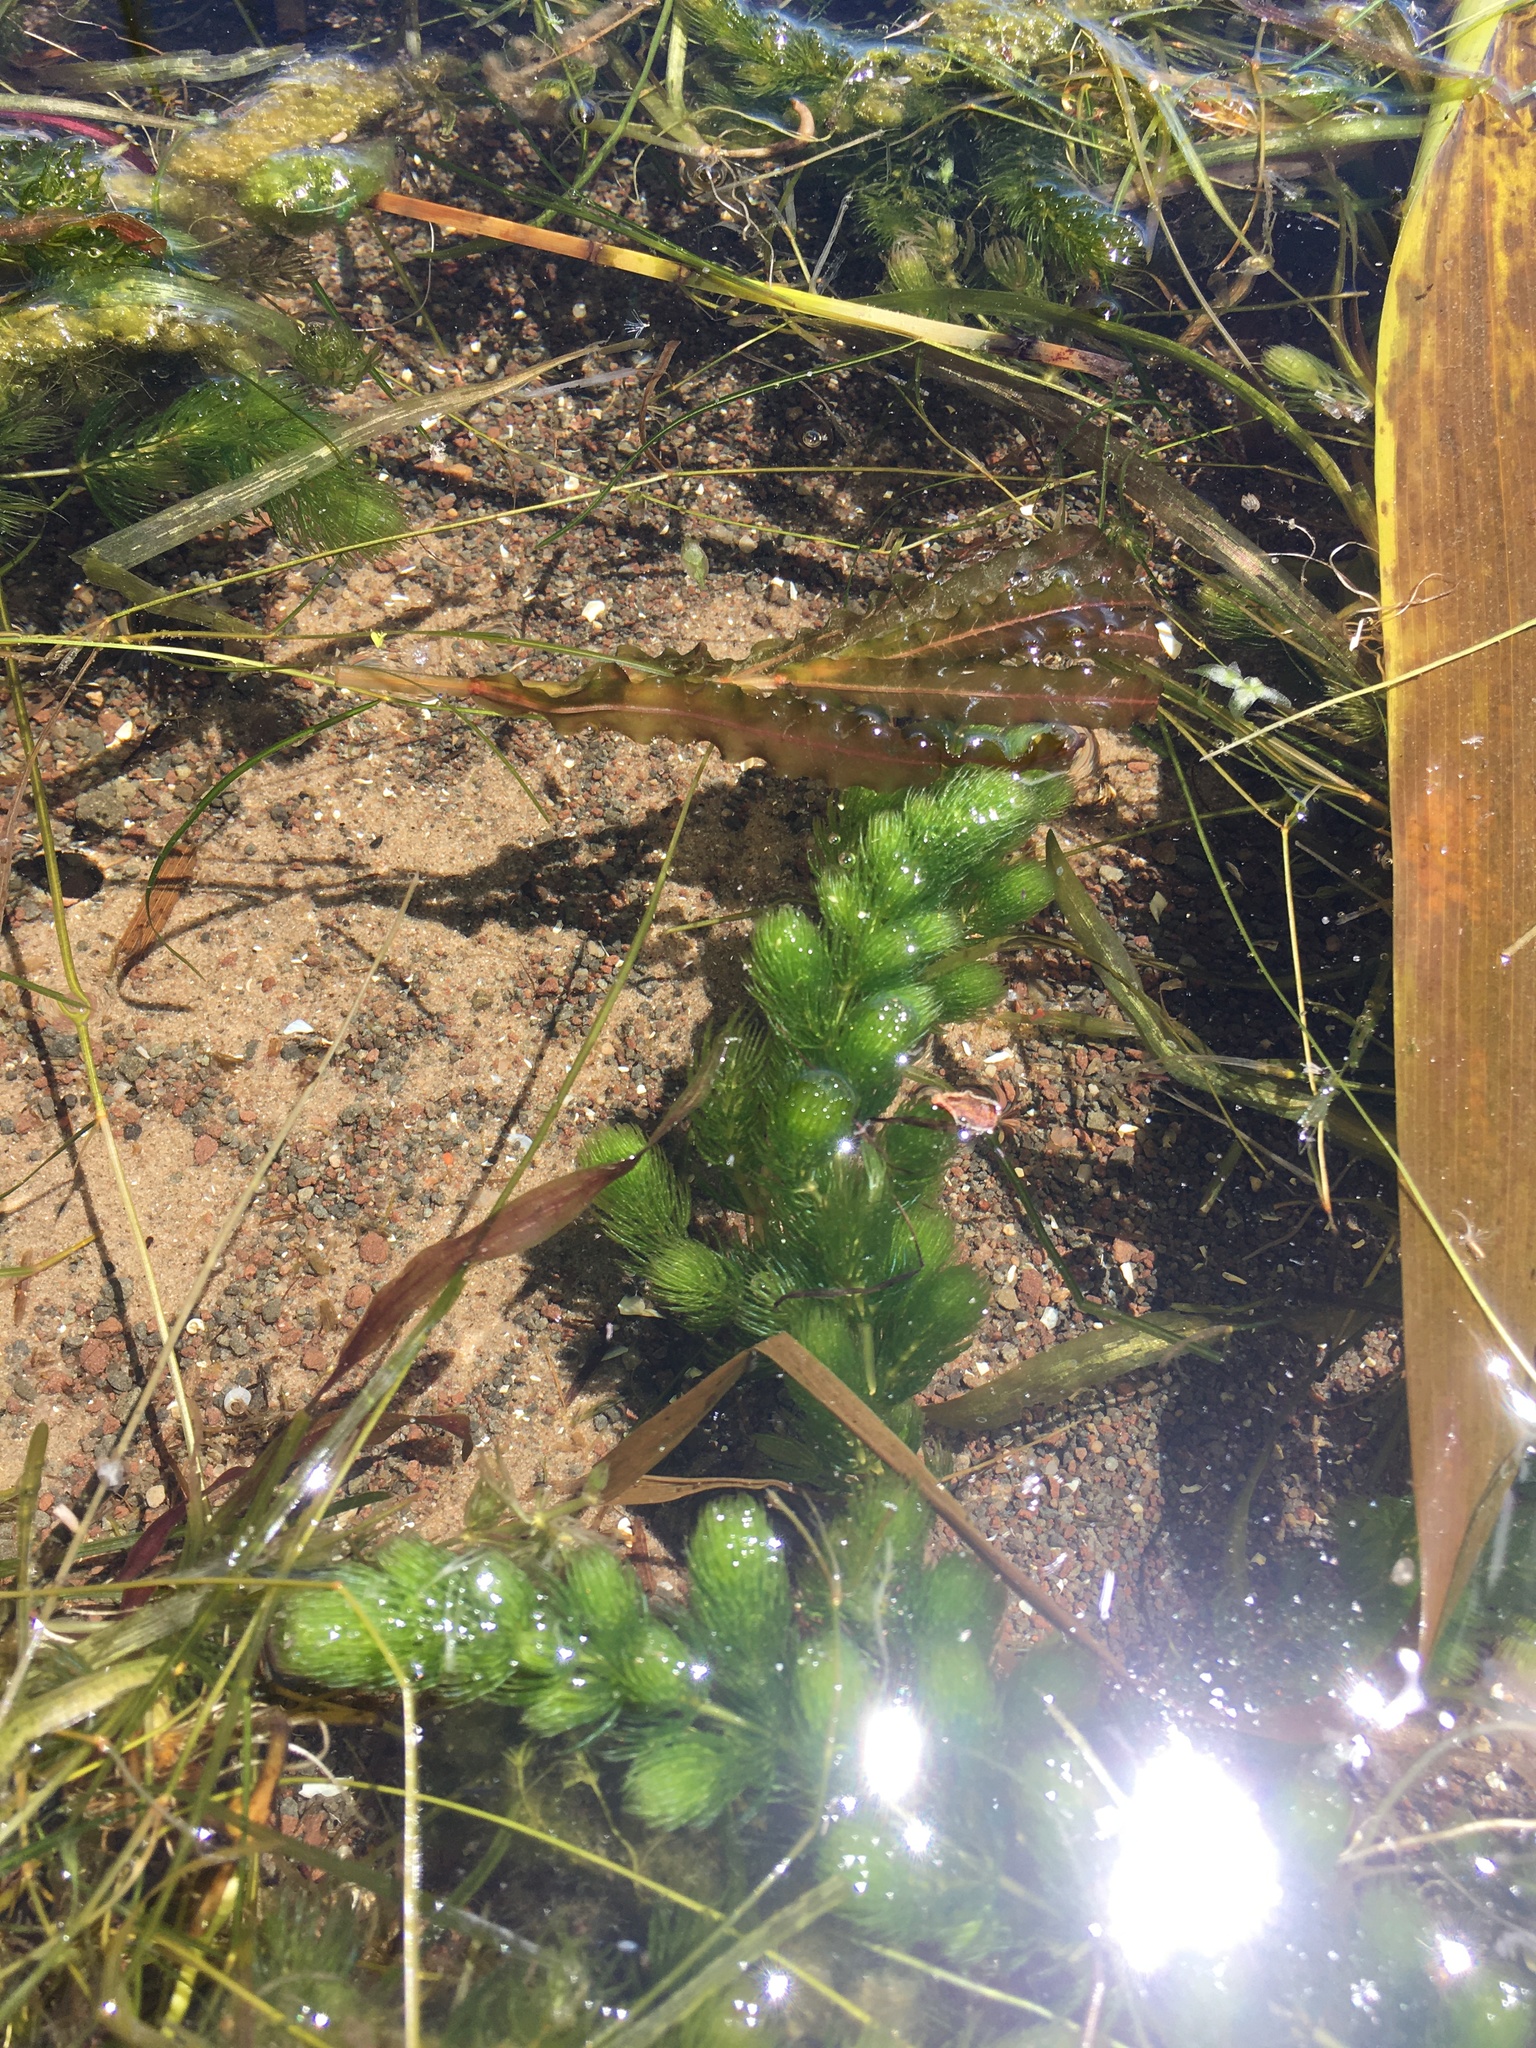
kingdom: Plantae
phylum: Tracheophyta
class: Magnoliopsida
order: Ceratophyllales
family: Ceratophyllaceae
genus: Ceratophyllum
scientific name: Ceratophyllum demersum
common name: Rigid hornwort
